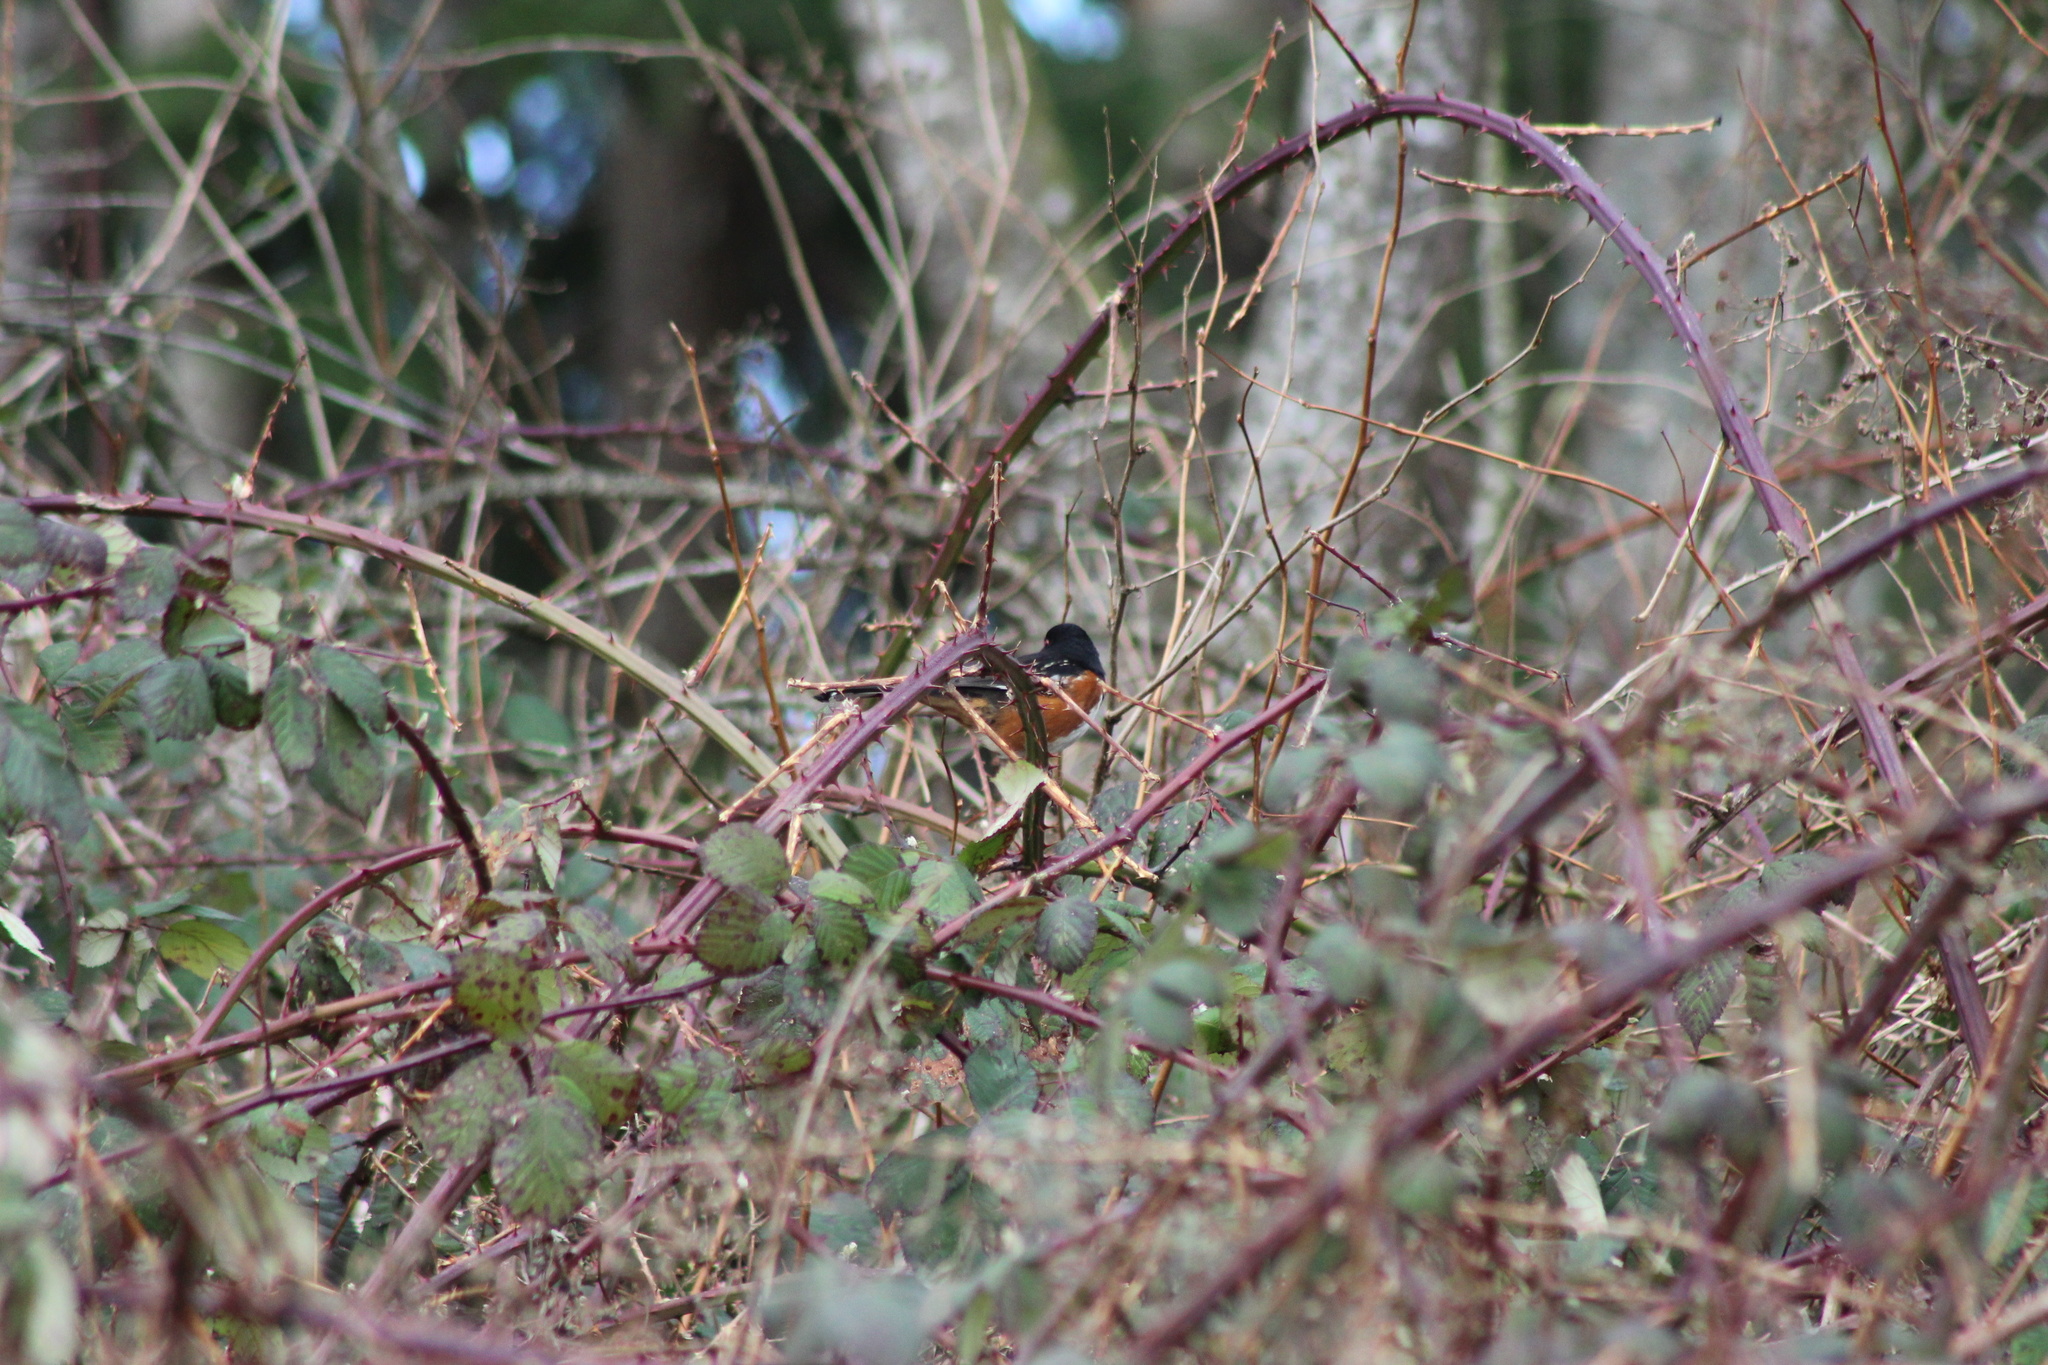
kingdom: Animalia
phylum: Chordata
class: Aves
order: Passeriformes
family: Passerellidae
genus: Pipilo
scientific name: Pipilo maculatus
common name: Spotted towhee
